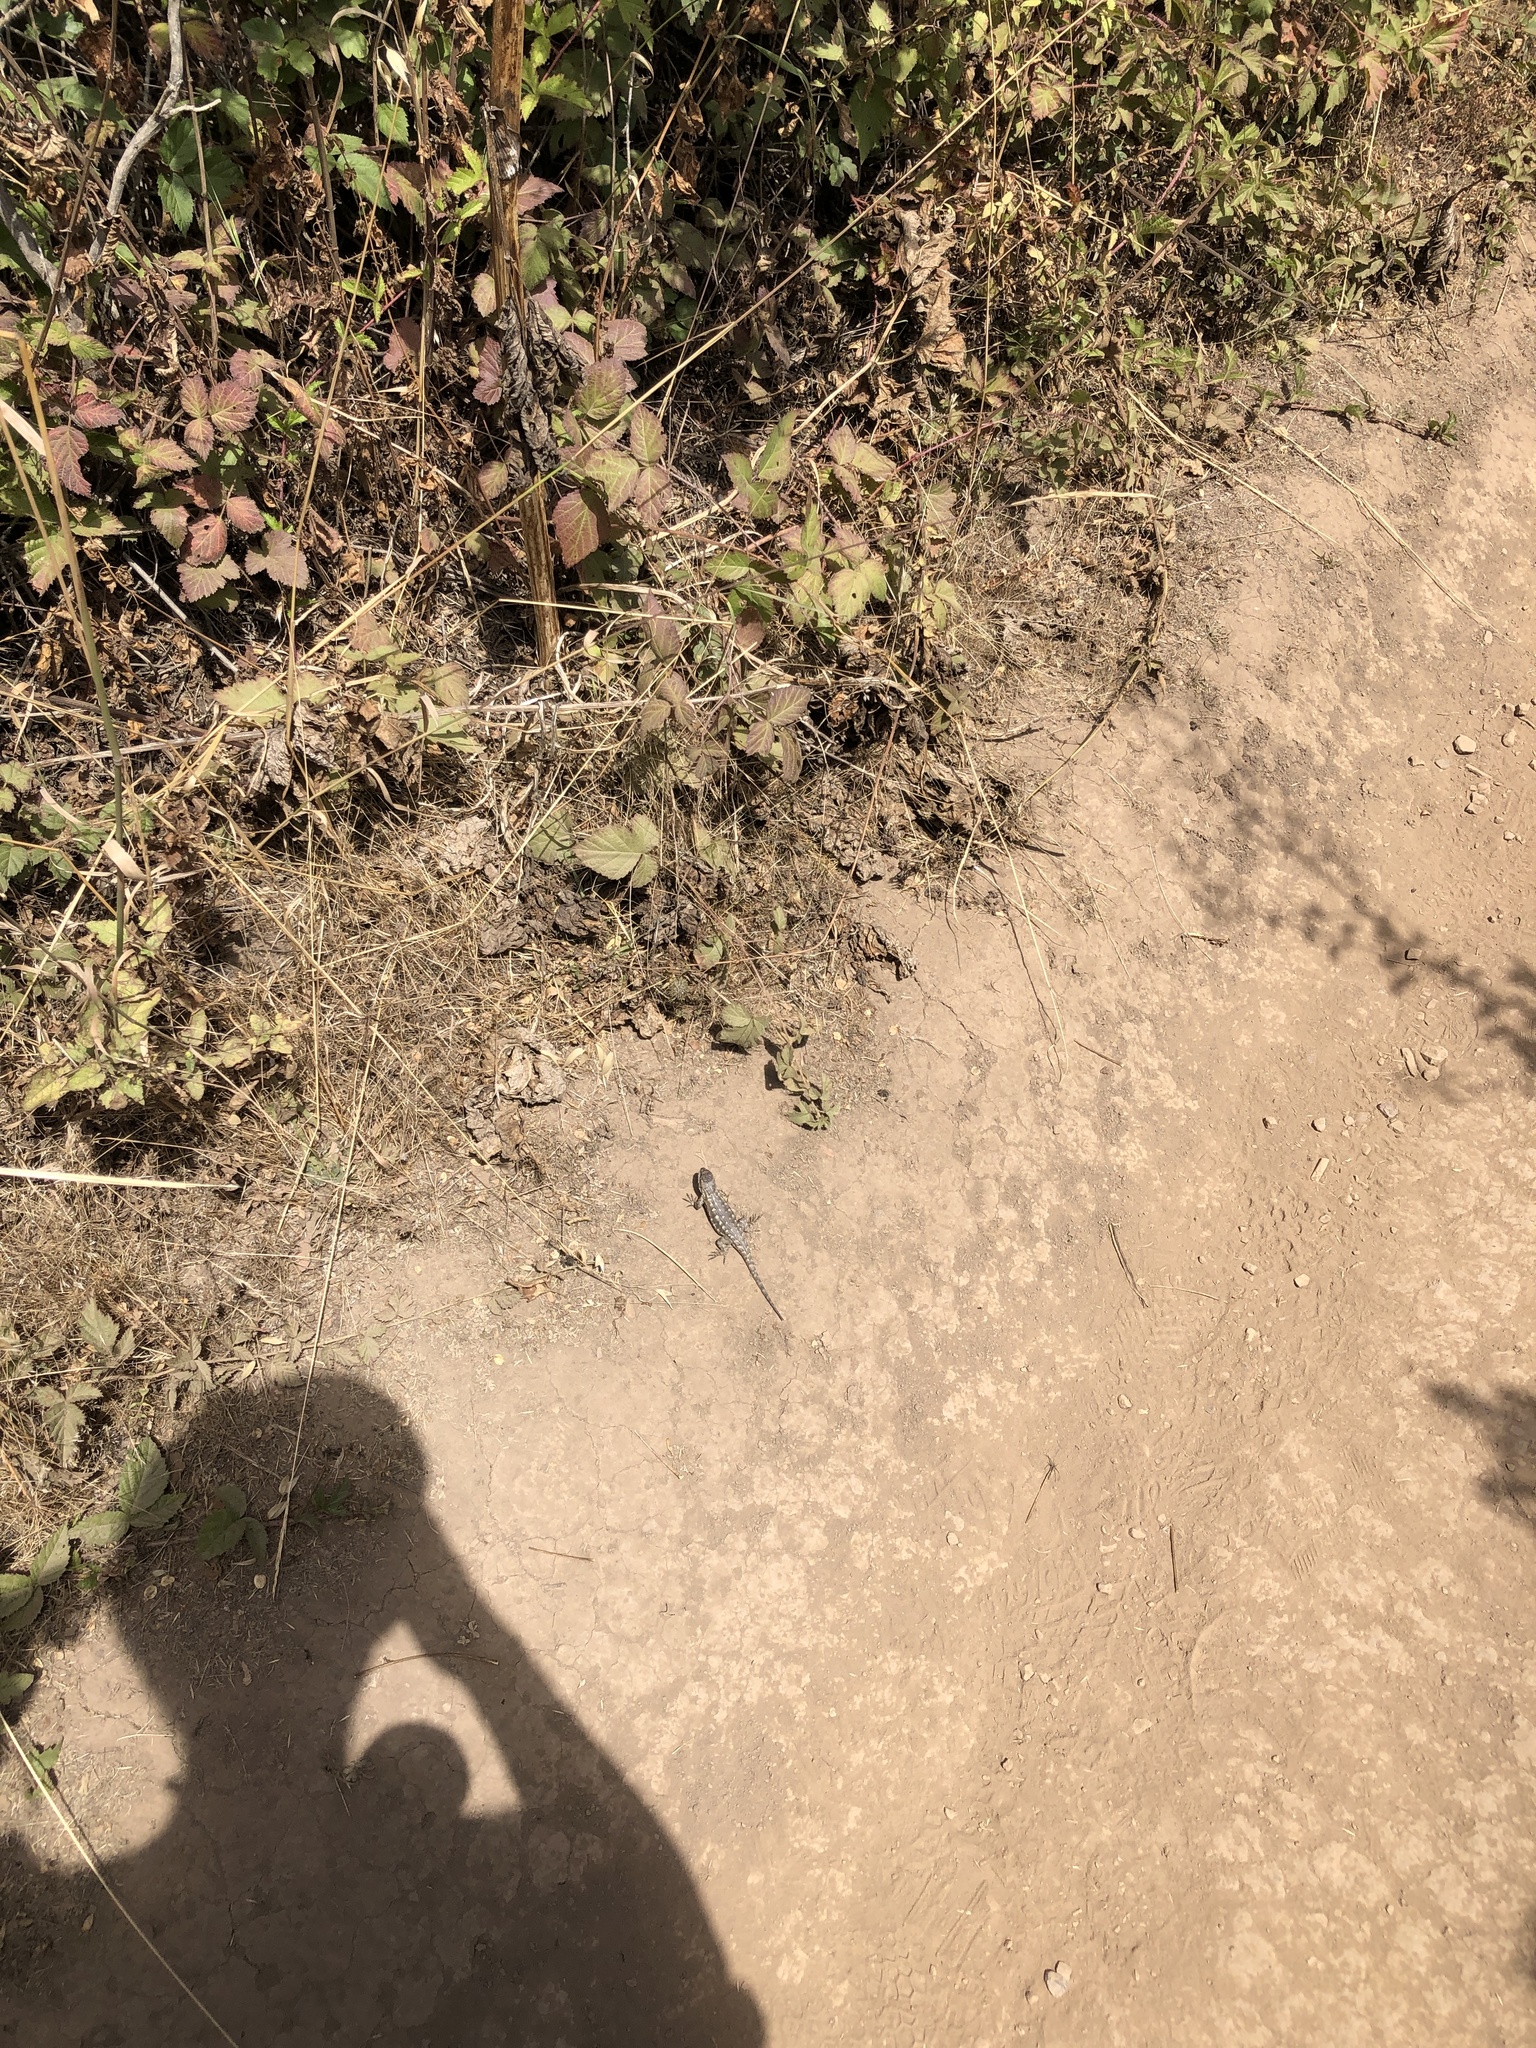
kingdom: Animalia
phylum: Chordata
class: Squamata
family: Phrynosomatidae
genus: Sceloporus
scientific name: Sceloporus occidentalis
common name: Western fence lizard
